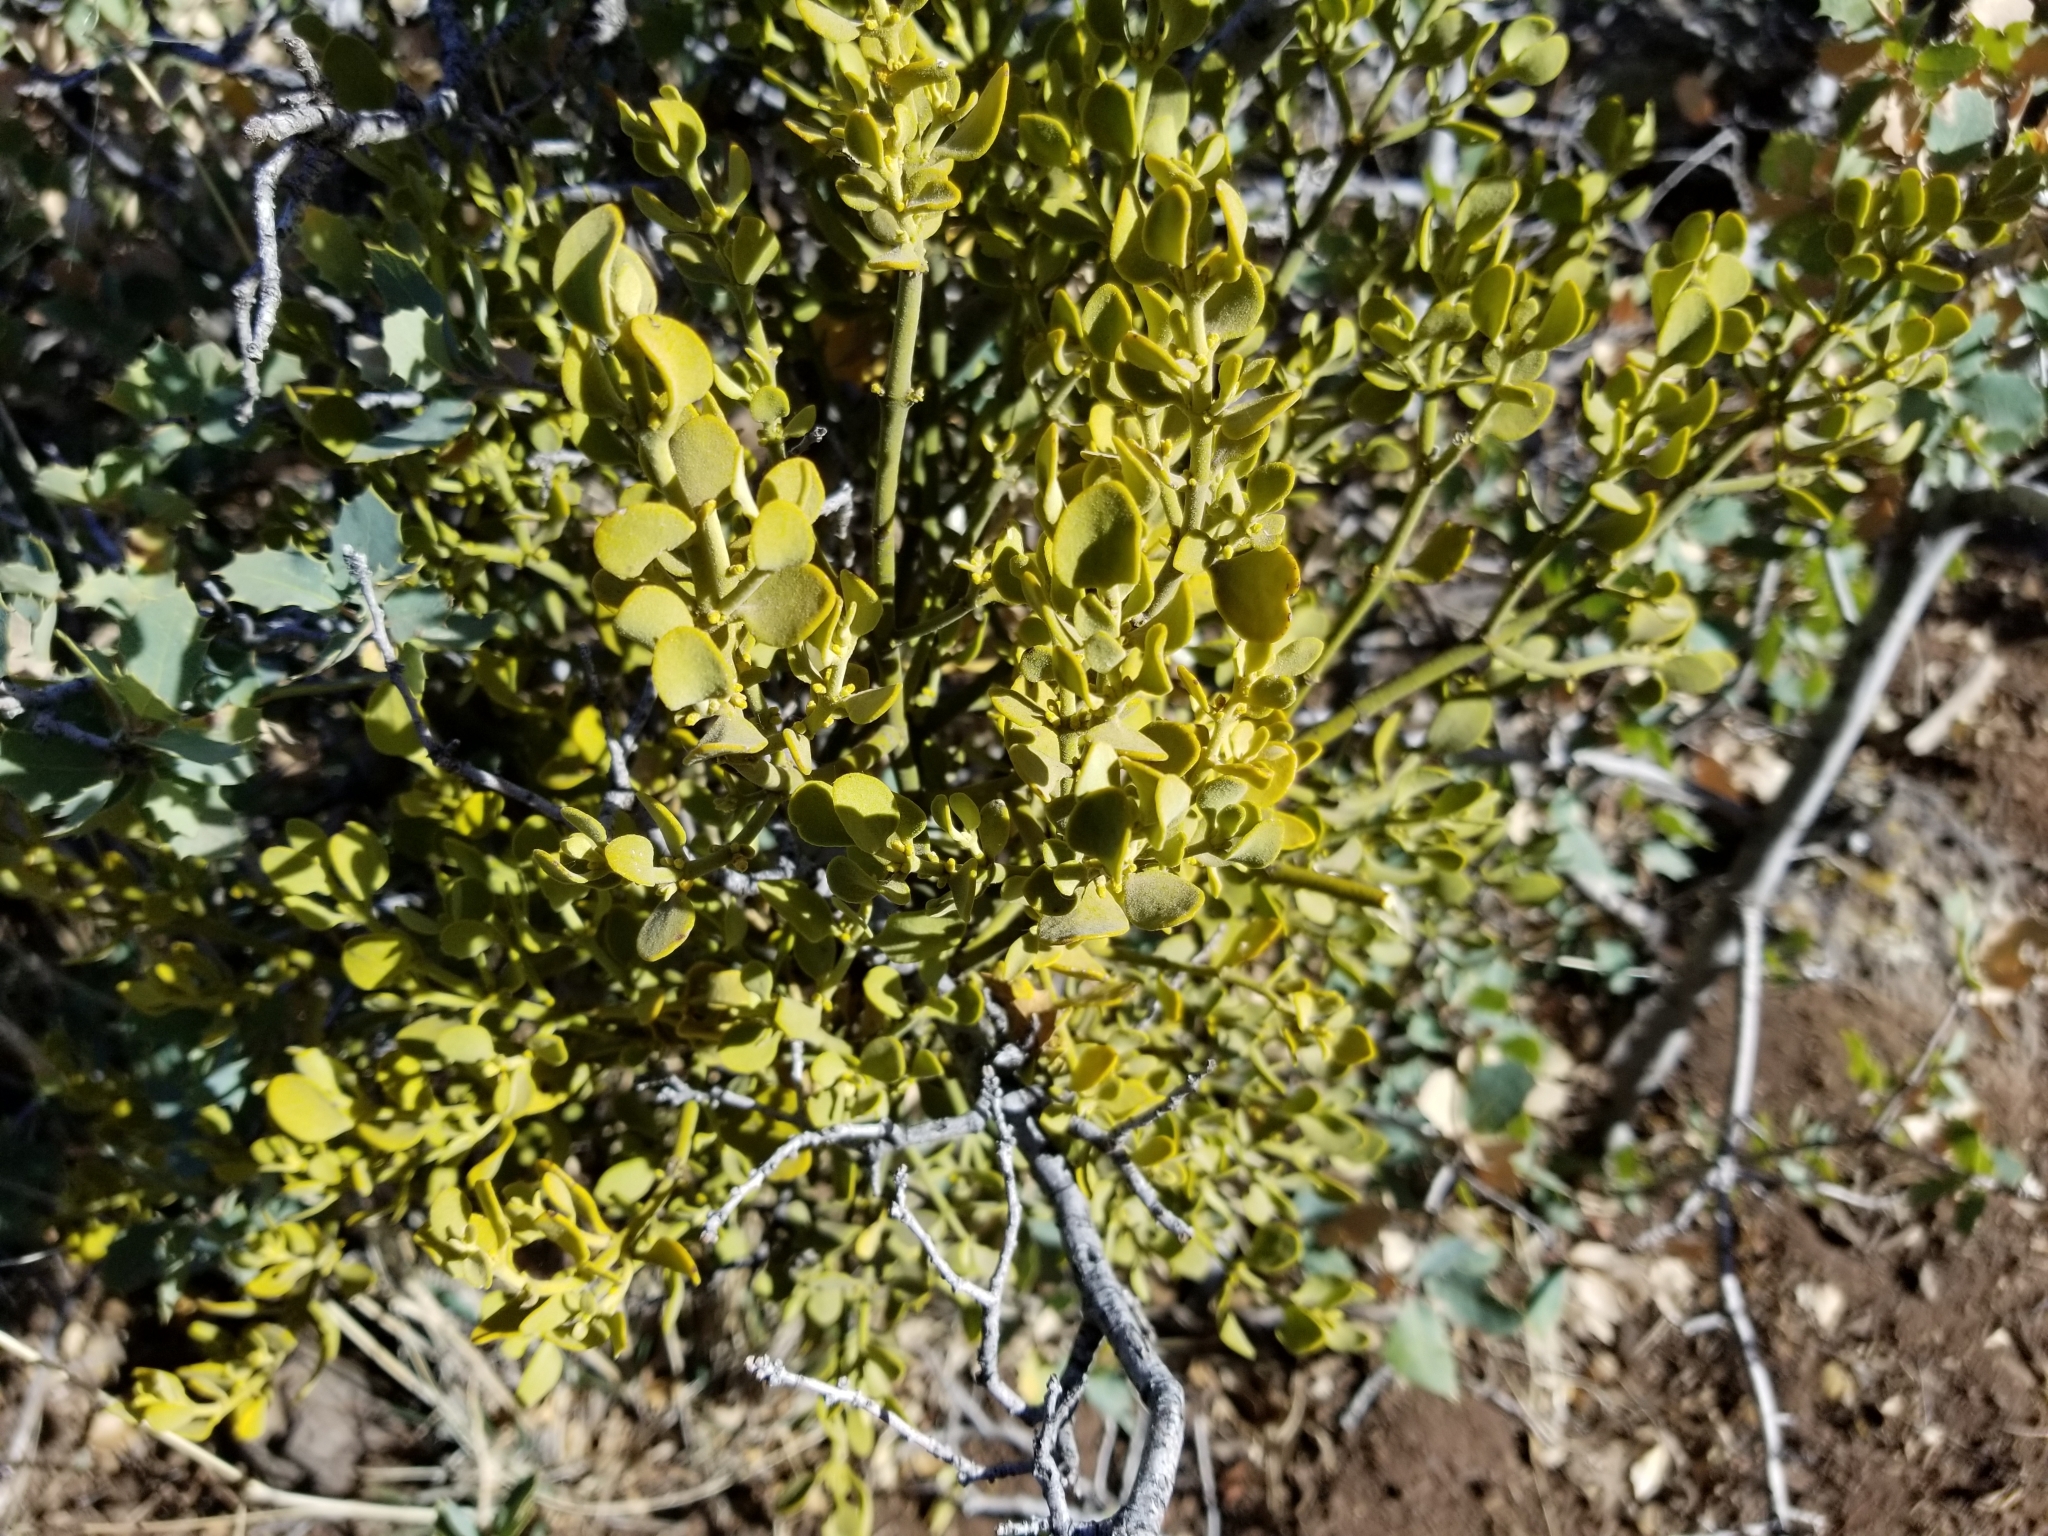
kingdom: Plantae
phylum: Tracheophyta
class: Magnoliopsida
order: Santalales
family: Viscaceae
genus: Phoradendron
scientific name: Phoradendron coryae
